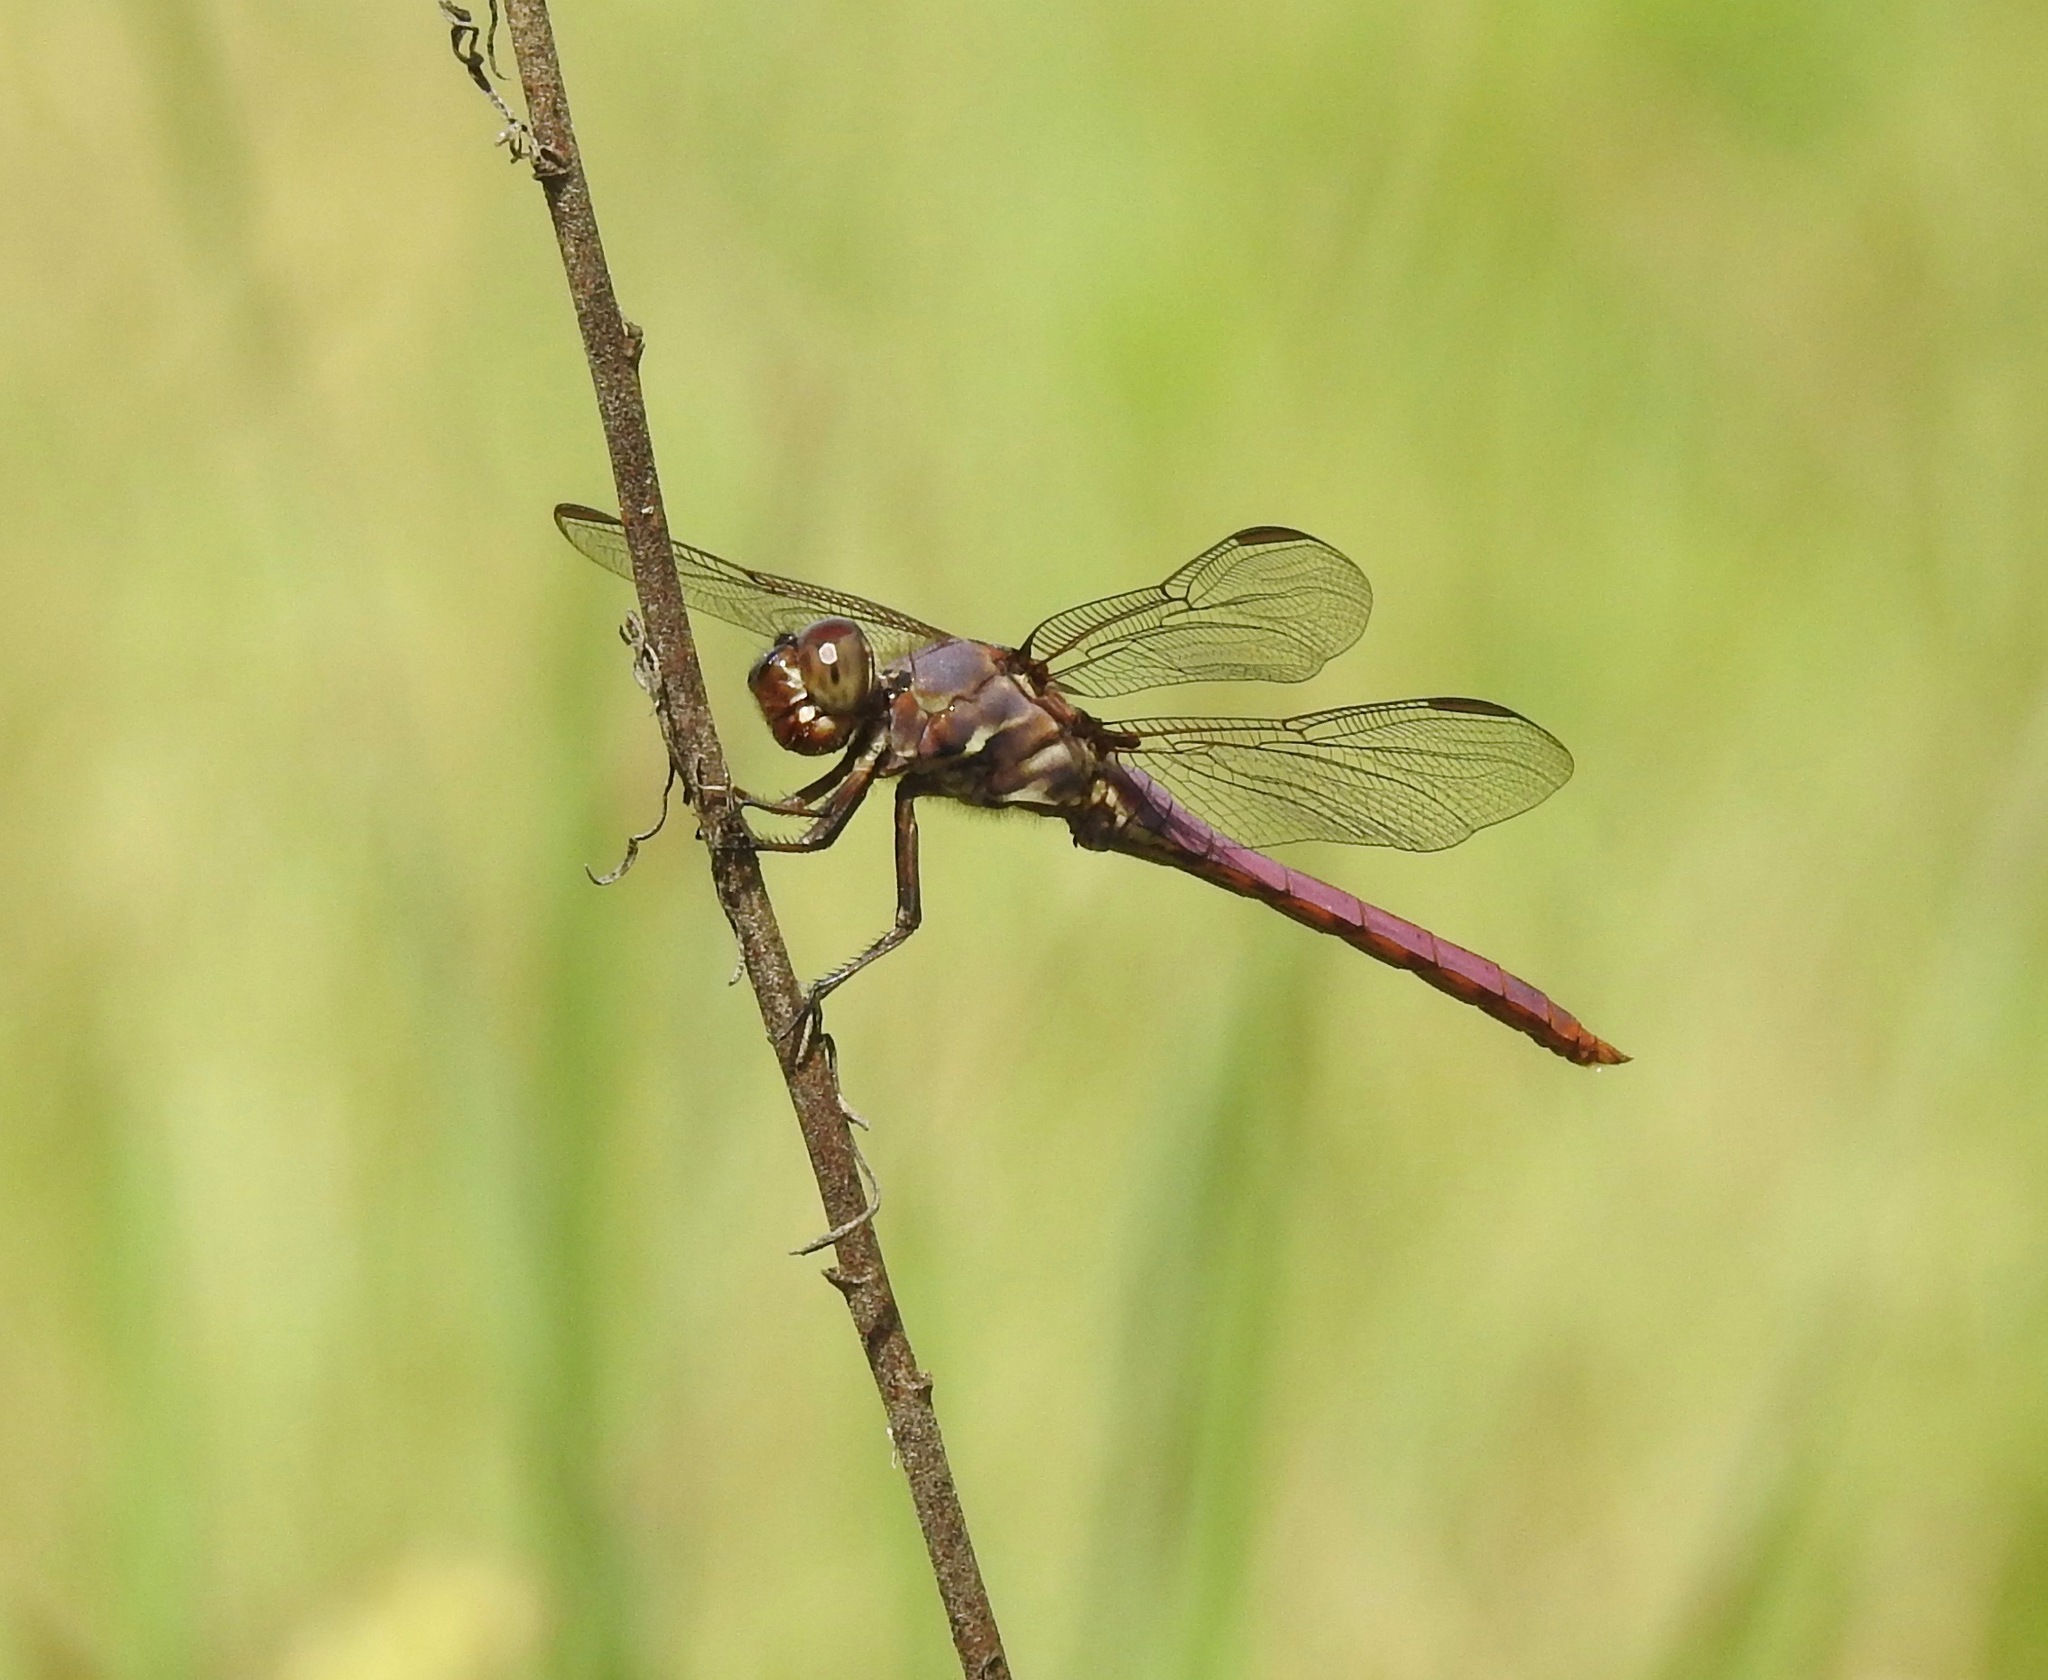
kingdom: Animalia
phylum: Arthropoda
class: Insecta
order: Odonata
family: Libellulidae
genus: Orthemis
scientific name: Orthemis ferruginea
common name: Roseate skimmer
